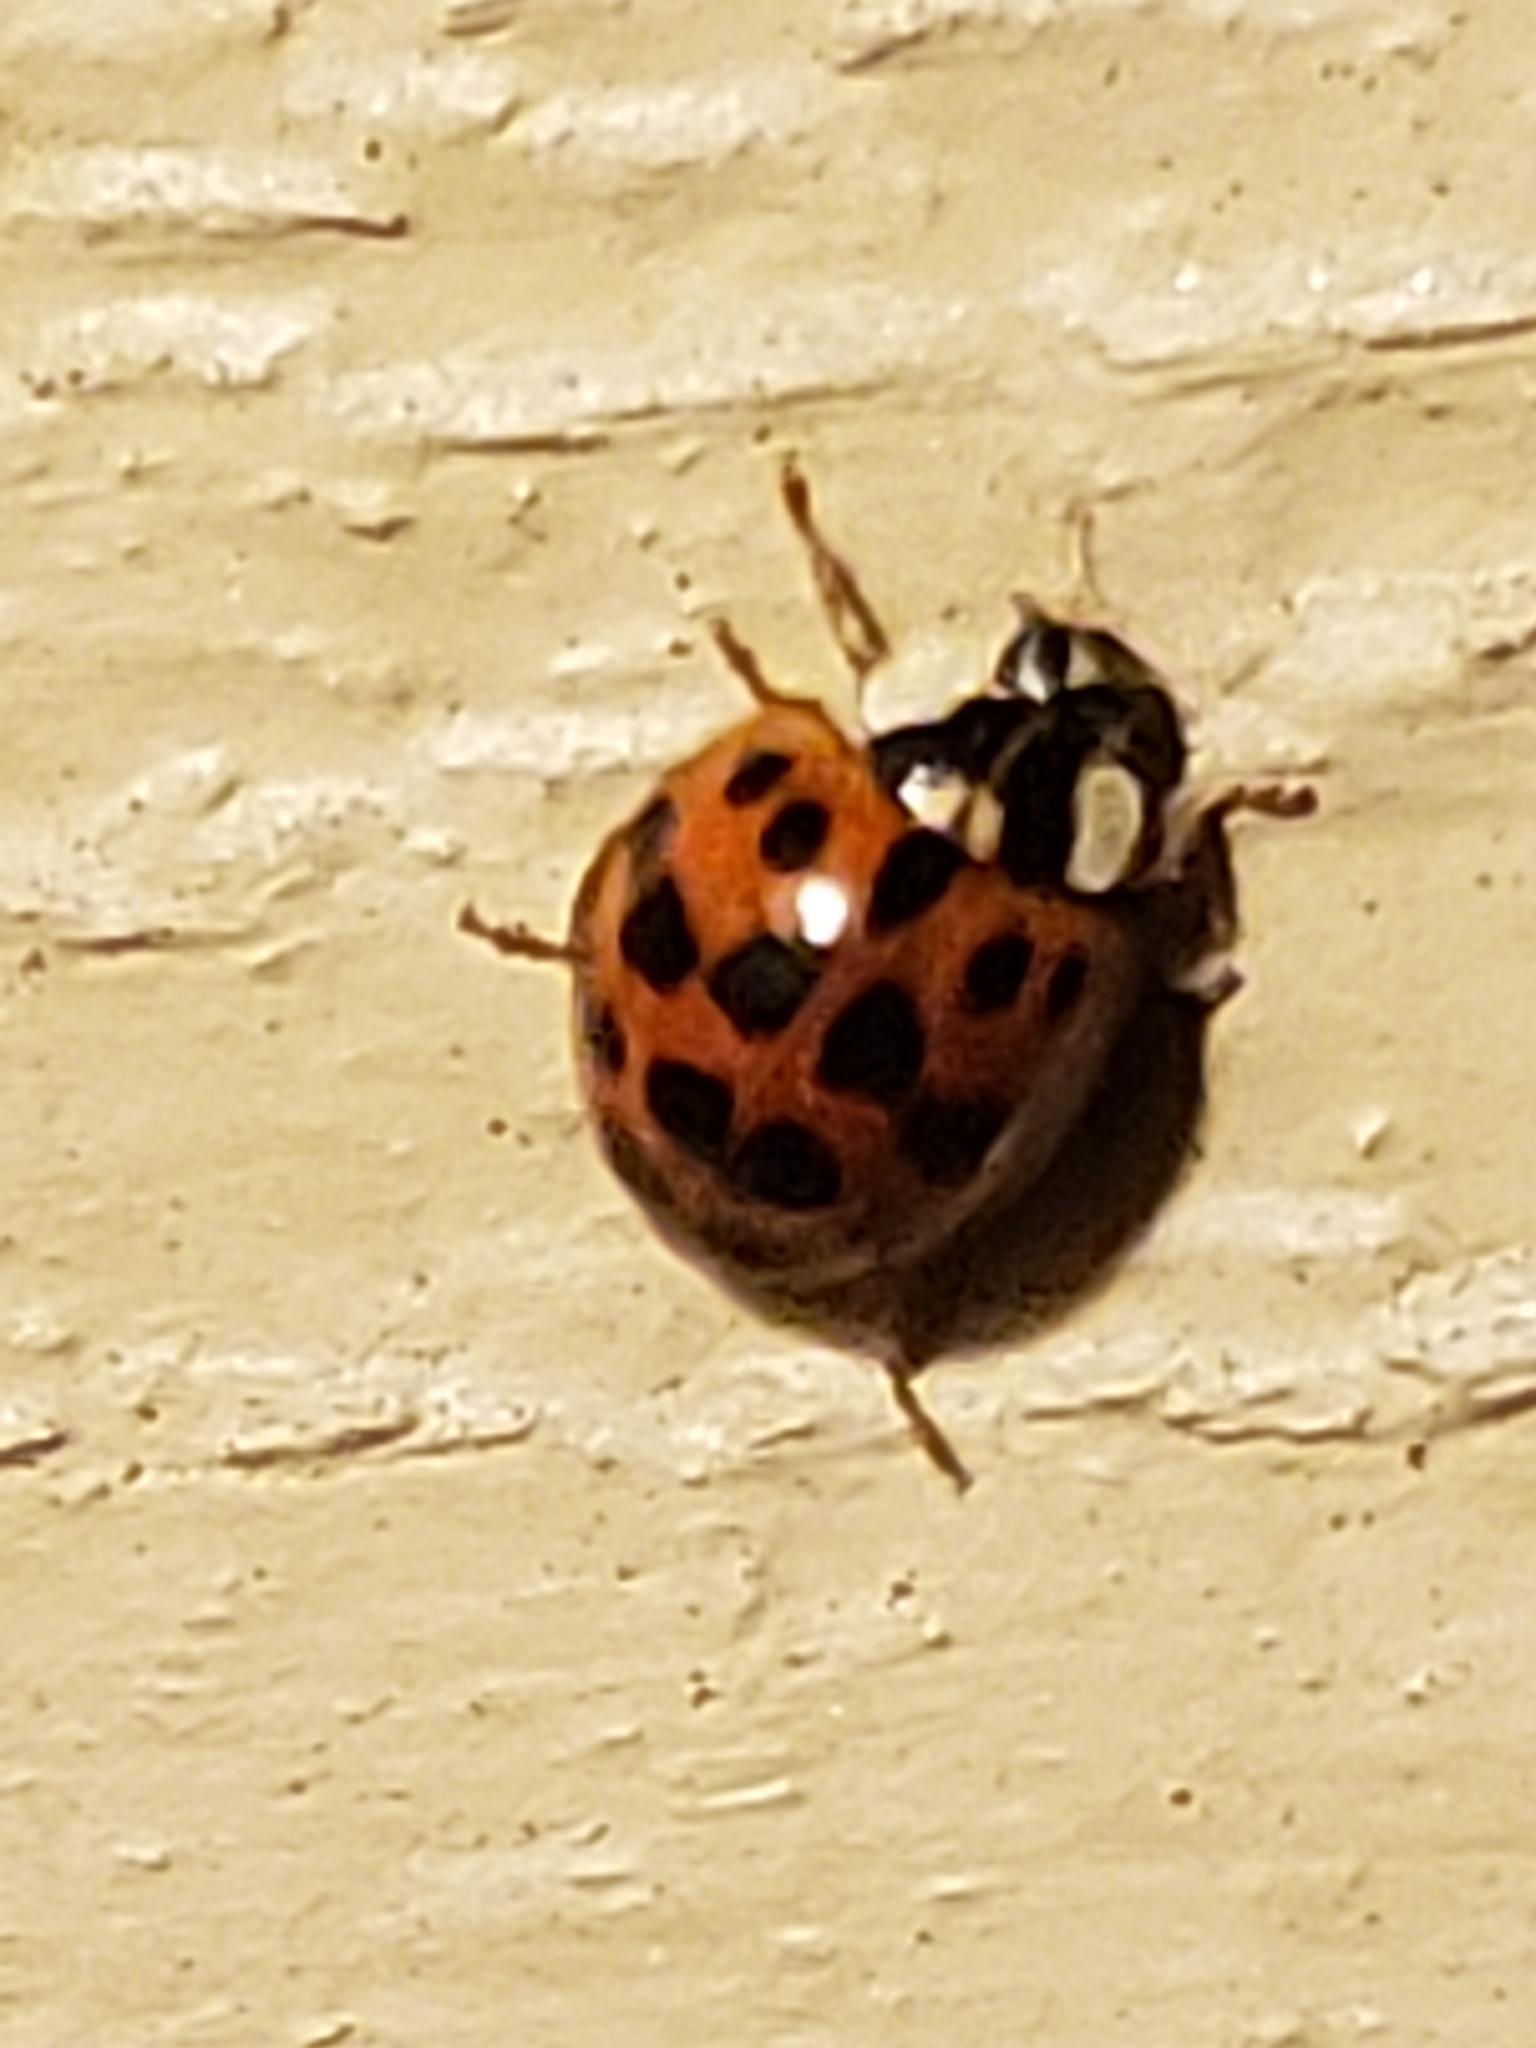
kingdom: Animalia
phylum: Arthropoda
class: Insecta
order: Coleoptera
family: Coccinellidae
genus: Harmonia
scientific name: Harmonia axyridis
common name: Harlequin ladybird
